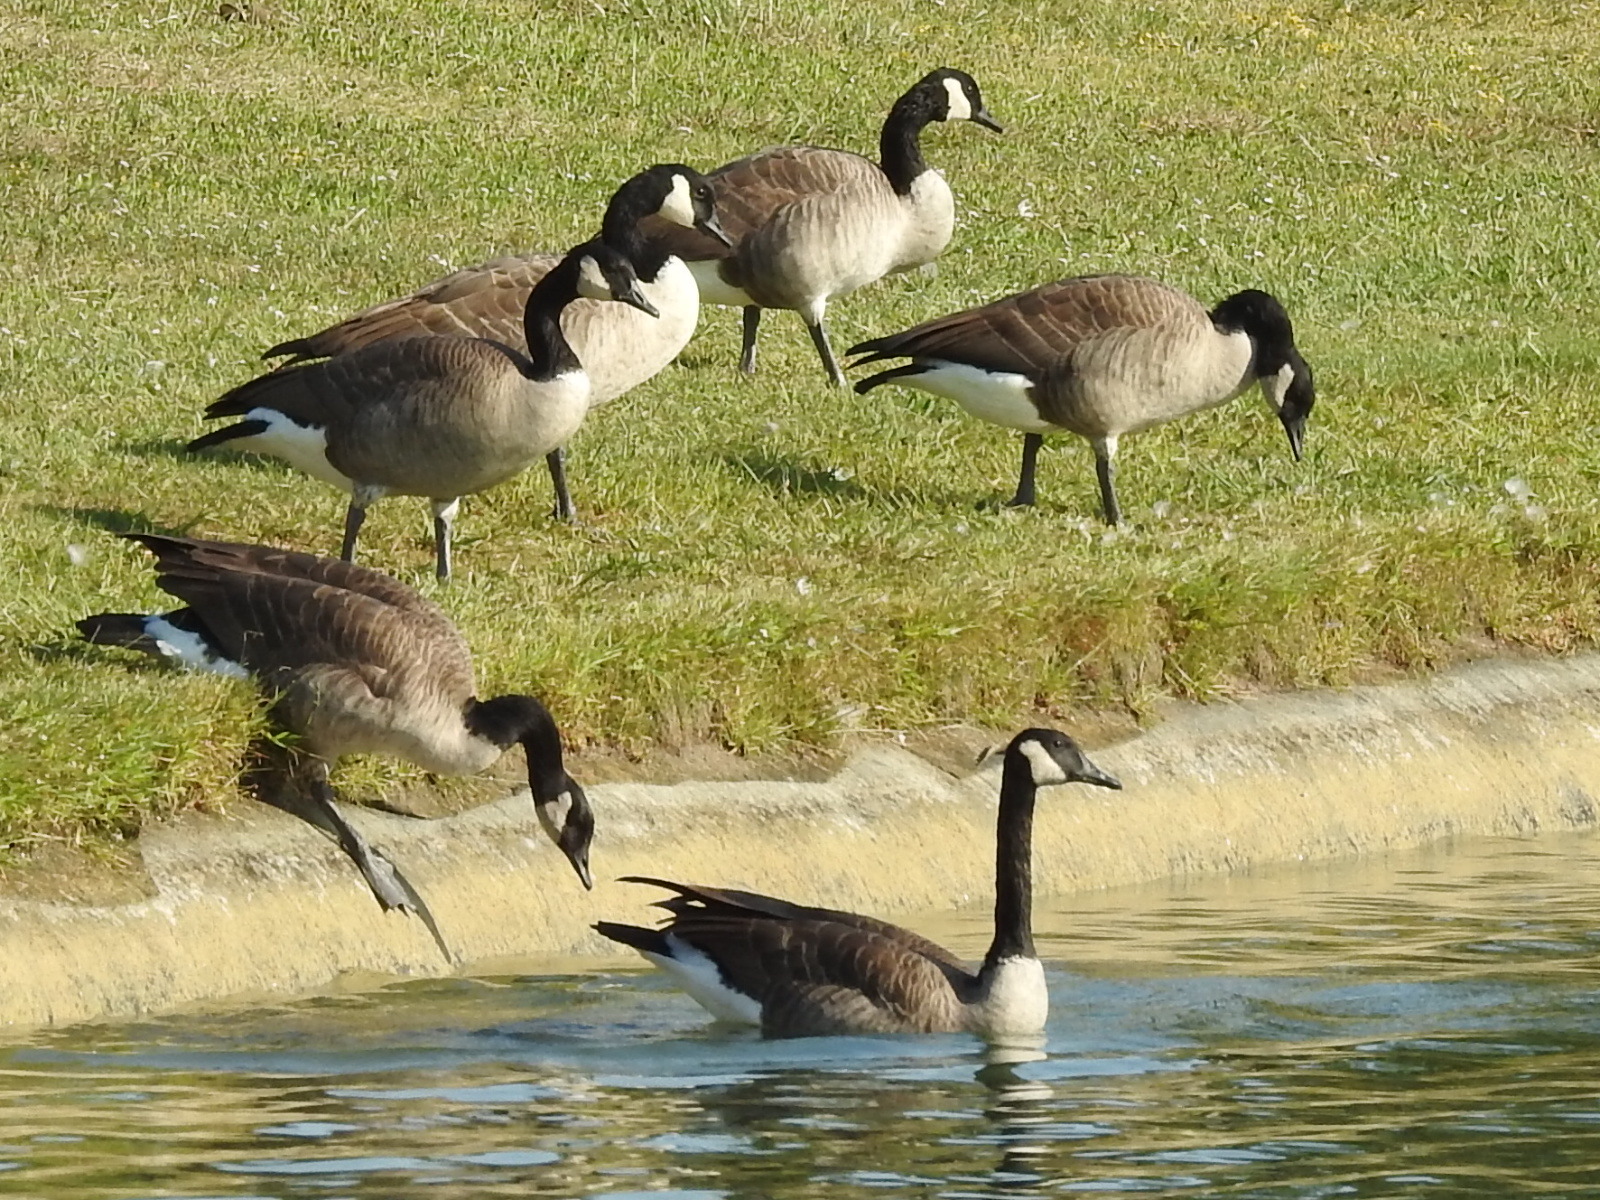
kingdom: Animalia
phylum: Chordata
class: Aves
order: Anseriformes
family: Anatidae
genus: Branta
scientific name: Branta canadensis
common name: Canada goose
